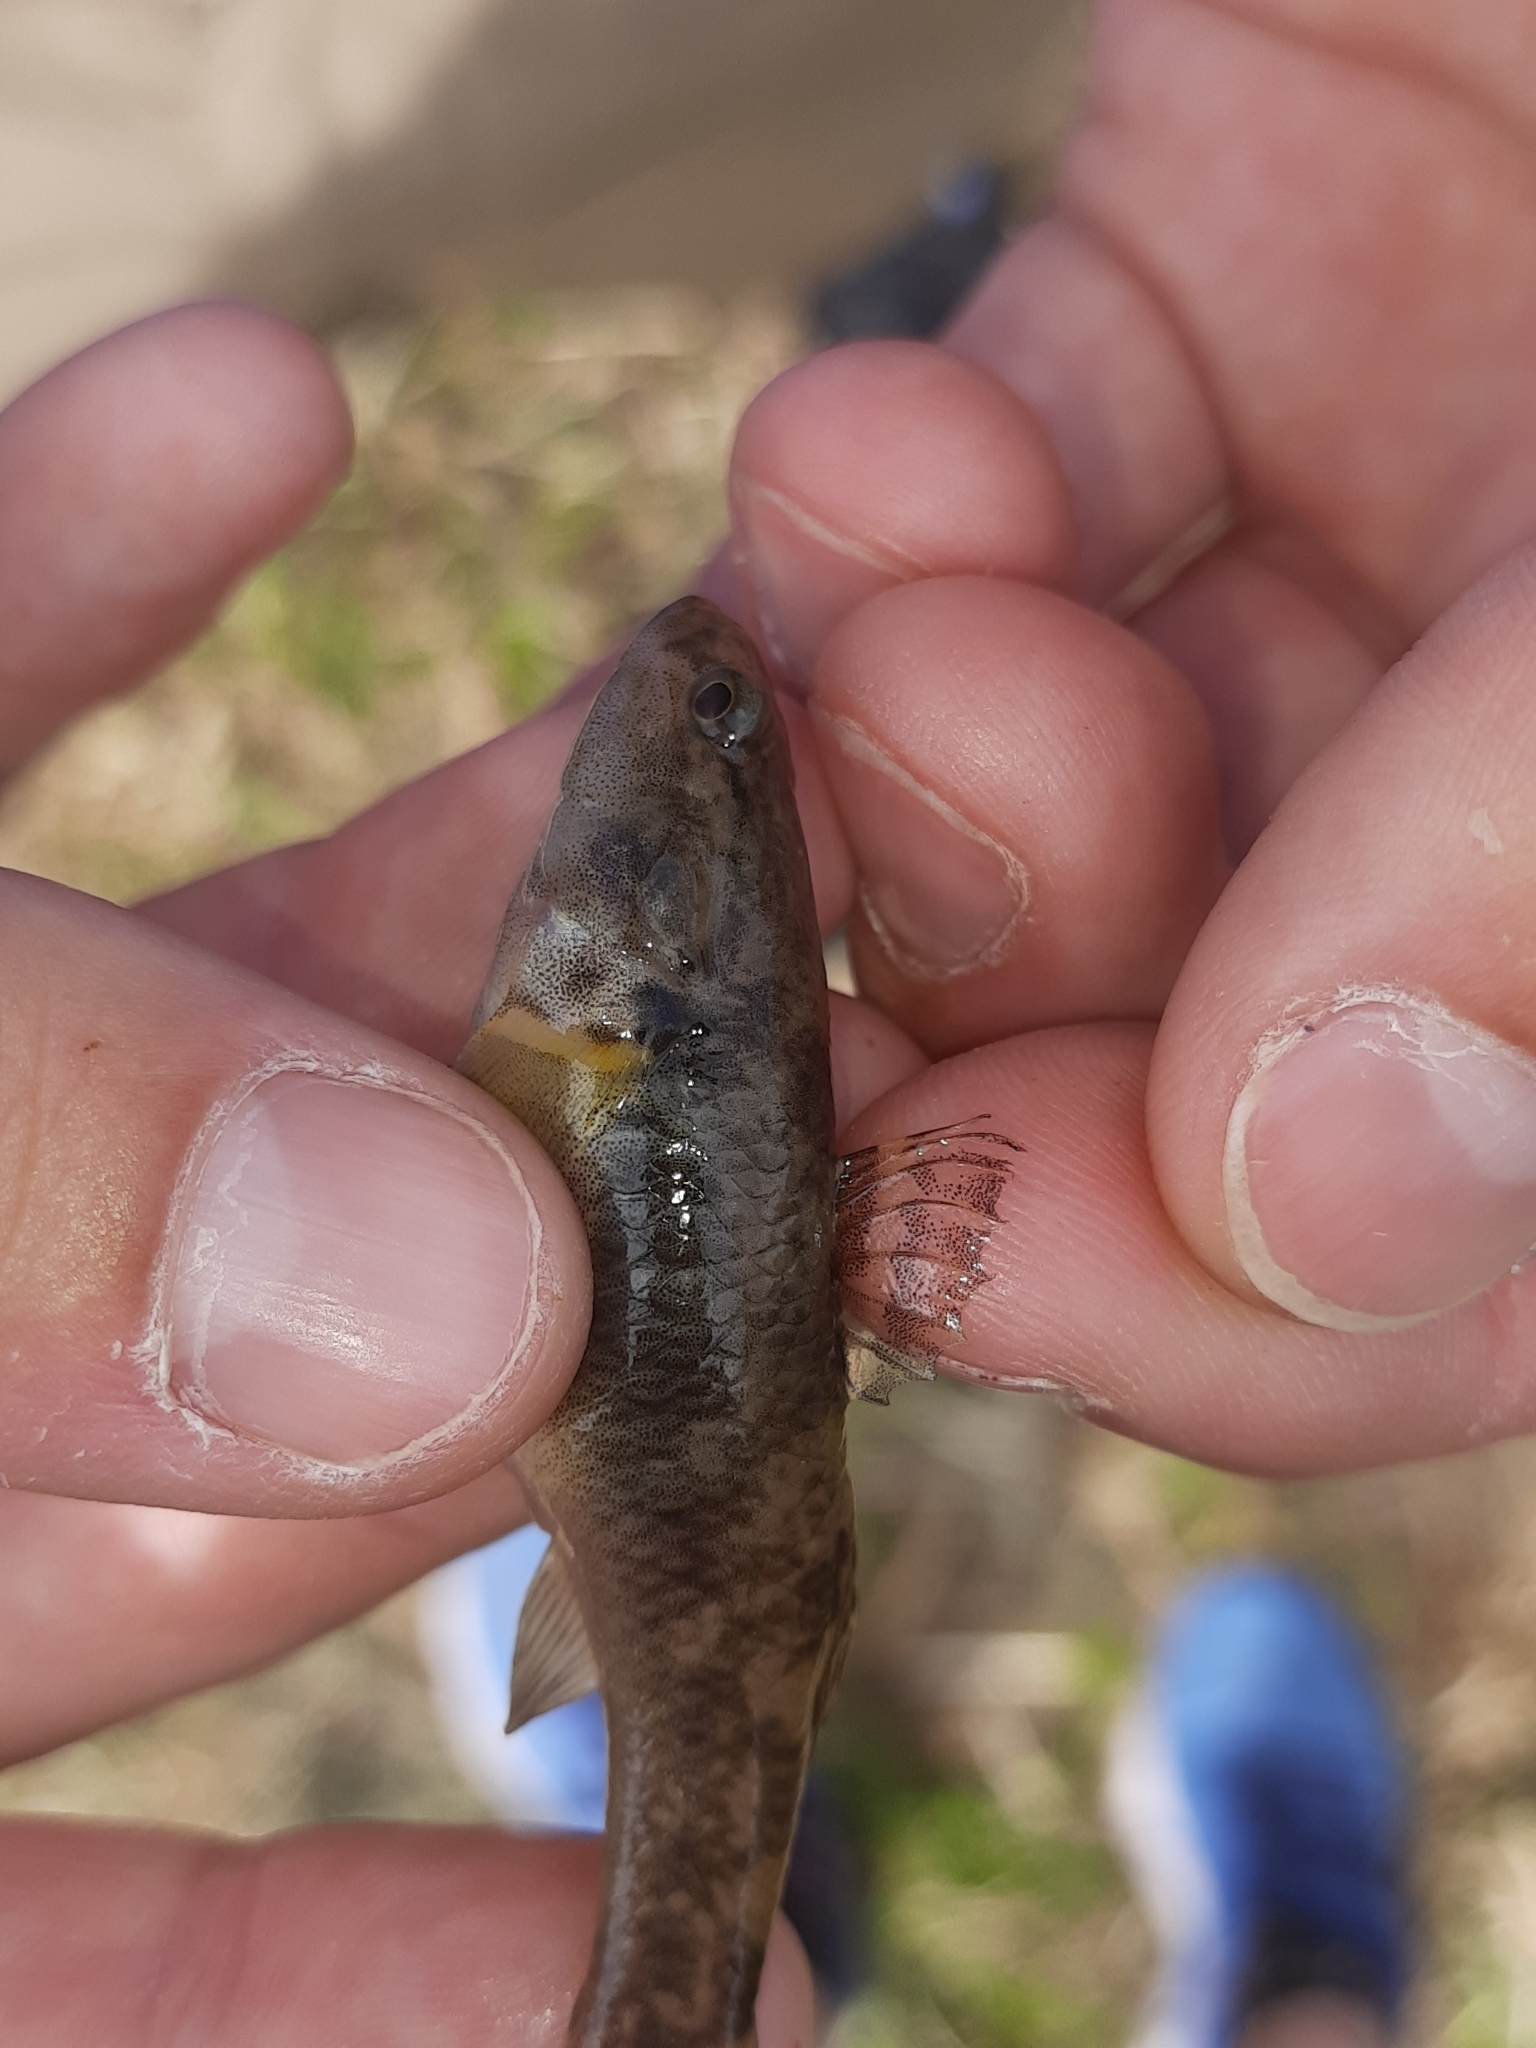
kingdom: Animalia
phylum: Chordata
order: Perciformes
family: Eleotridae
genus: Gobiomorphus
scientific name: Gobiomorphus cotidianus
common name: Common bully
